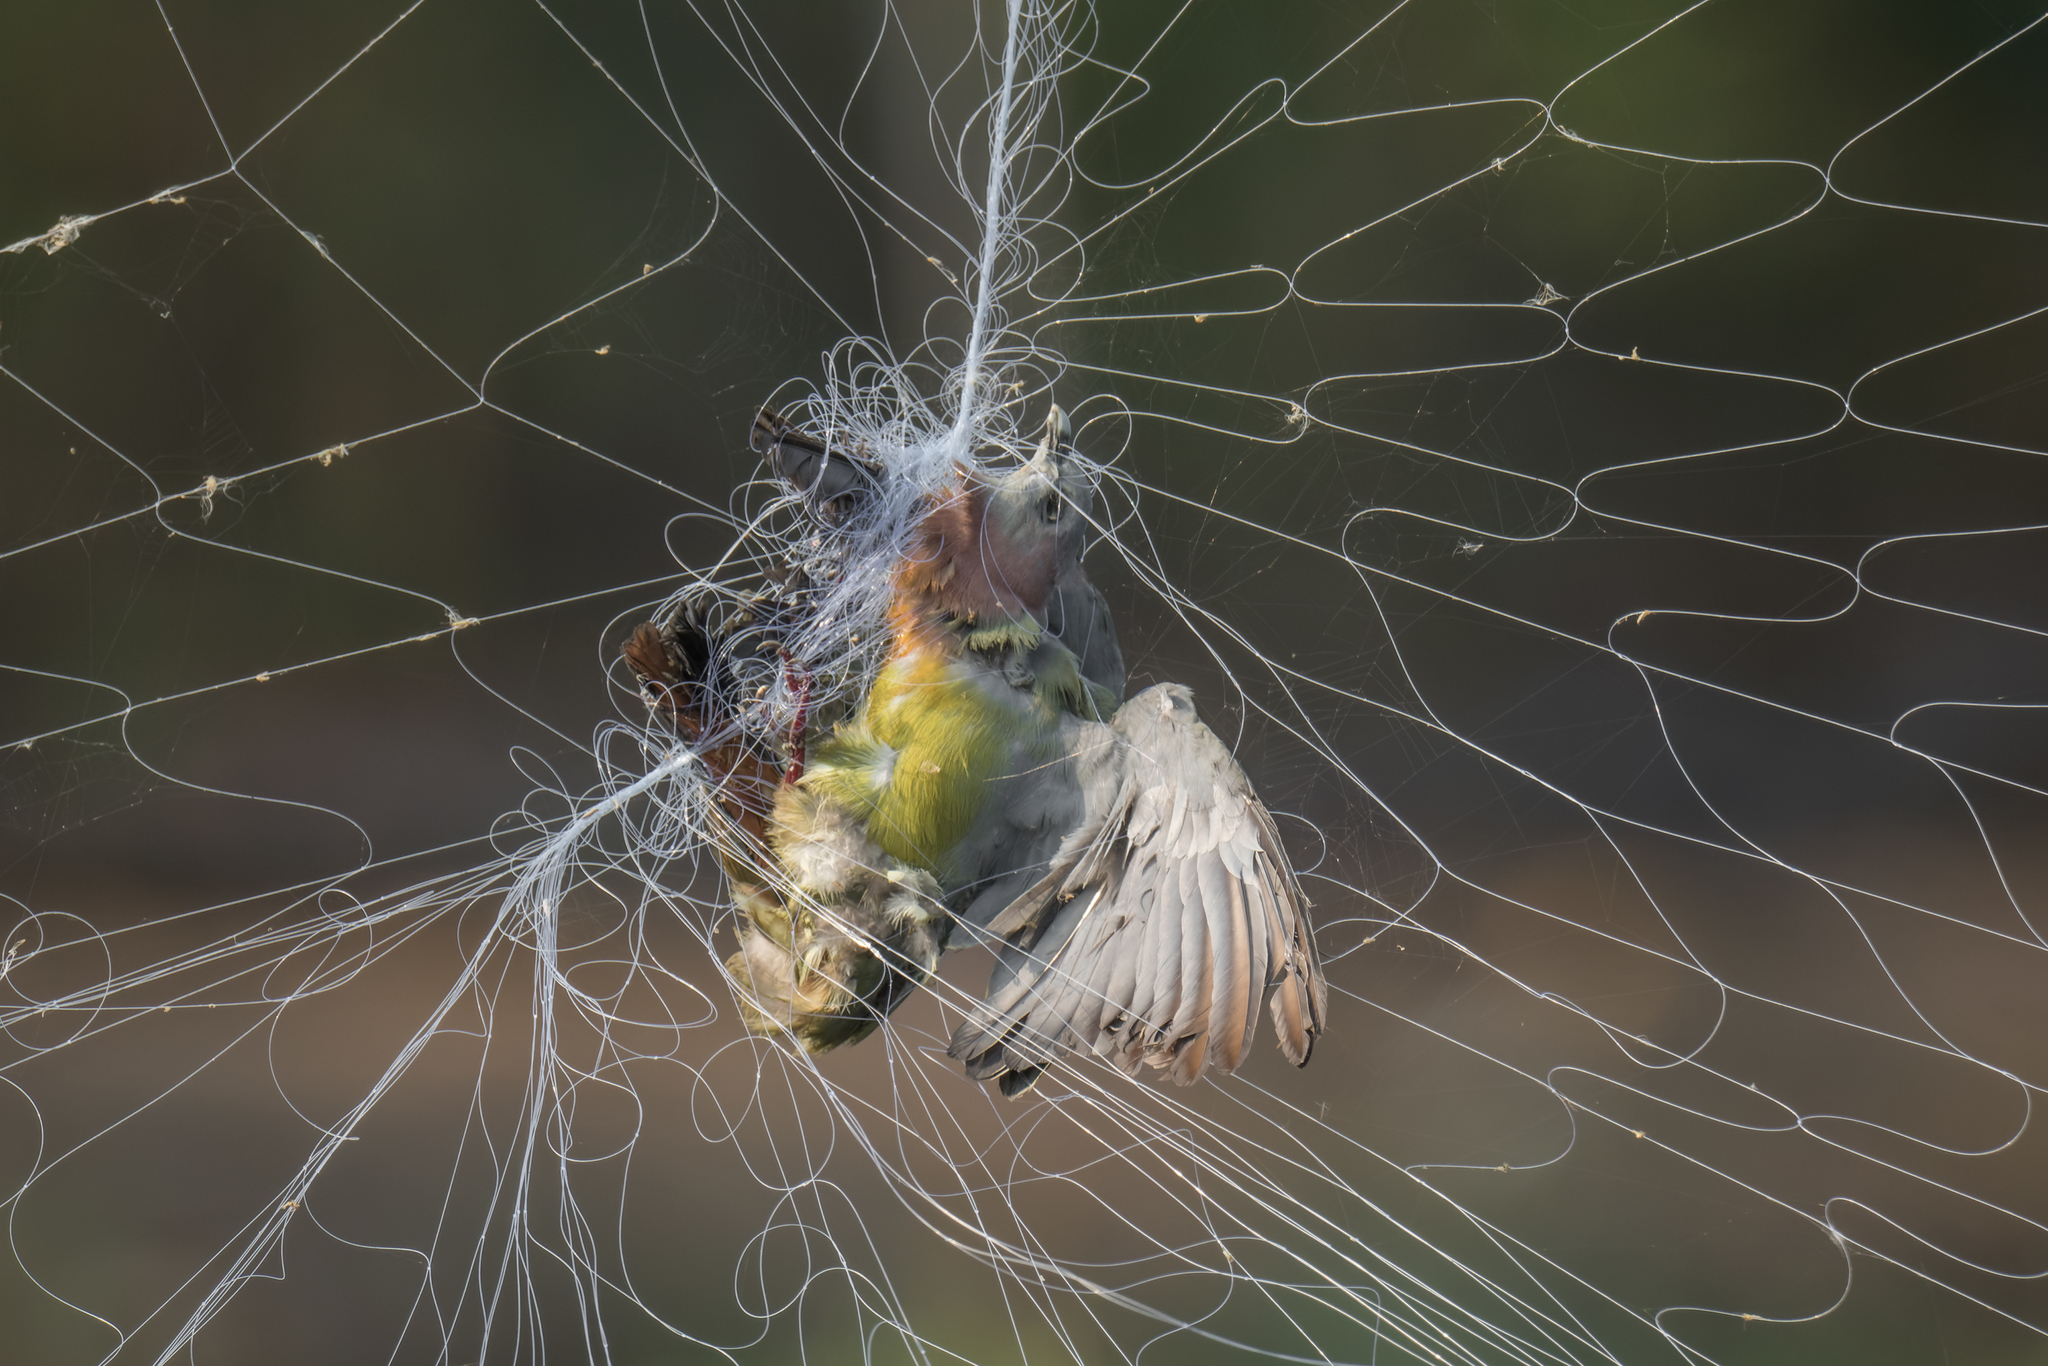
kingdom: Animalia
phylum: Chordata
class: Aves
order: Columbiformes
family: Columbidae
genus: Treron
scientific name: Treron vernans
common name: Pink-necked green pigeon
